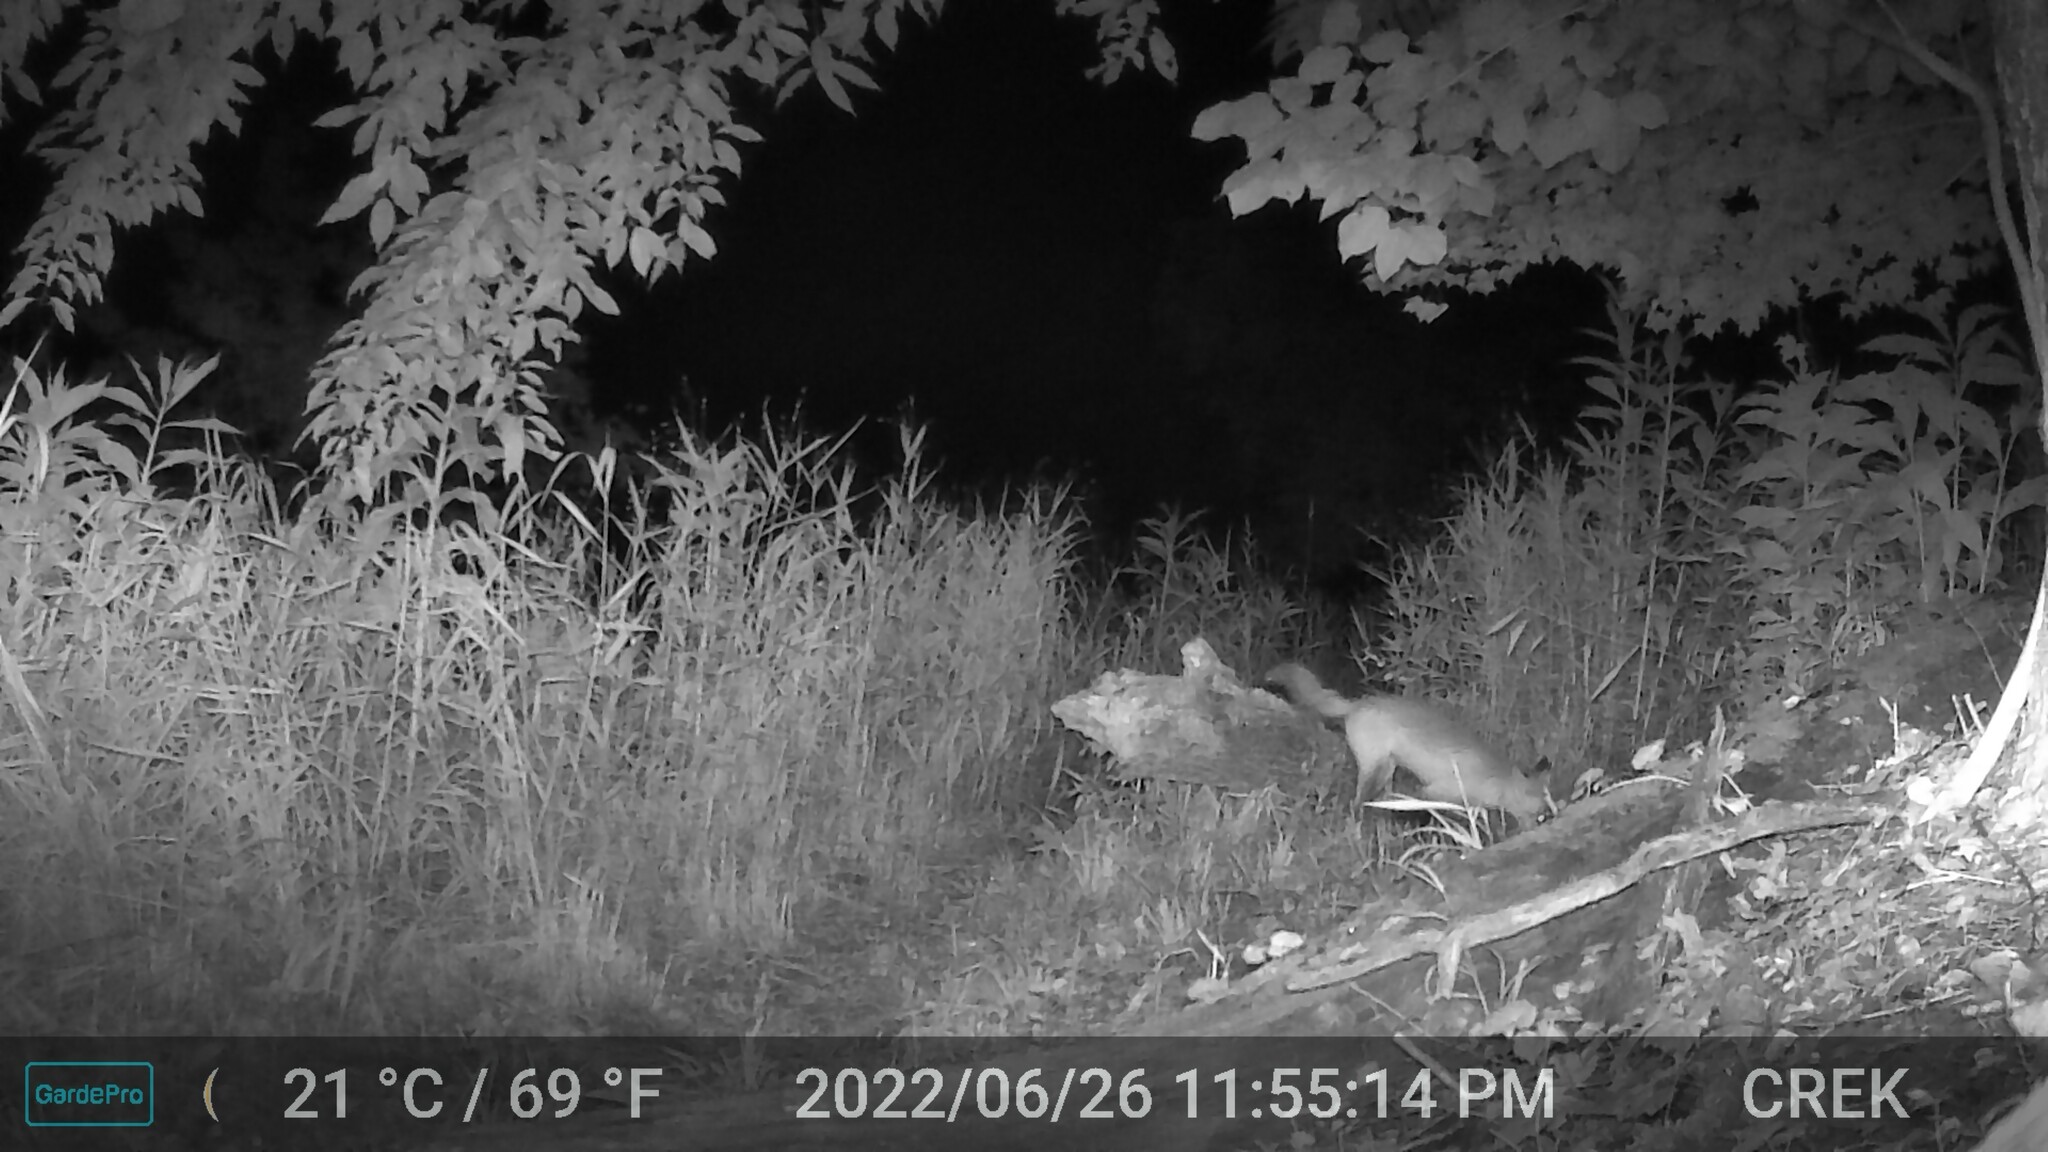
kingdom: Animalia
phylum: Chordata
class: Mammalia
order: Carnivora
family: Canidae
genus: Vulpes
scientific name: Vulpes vulpes
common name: Red fox
